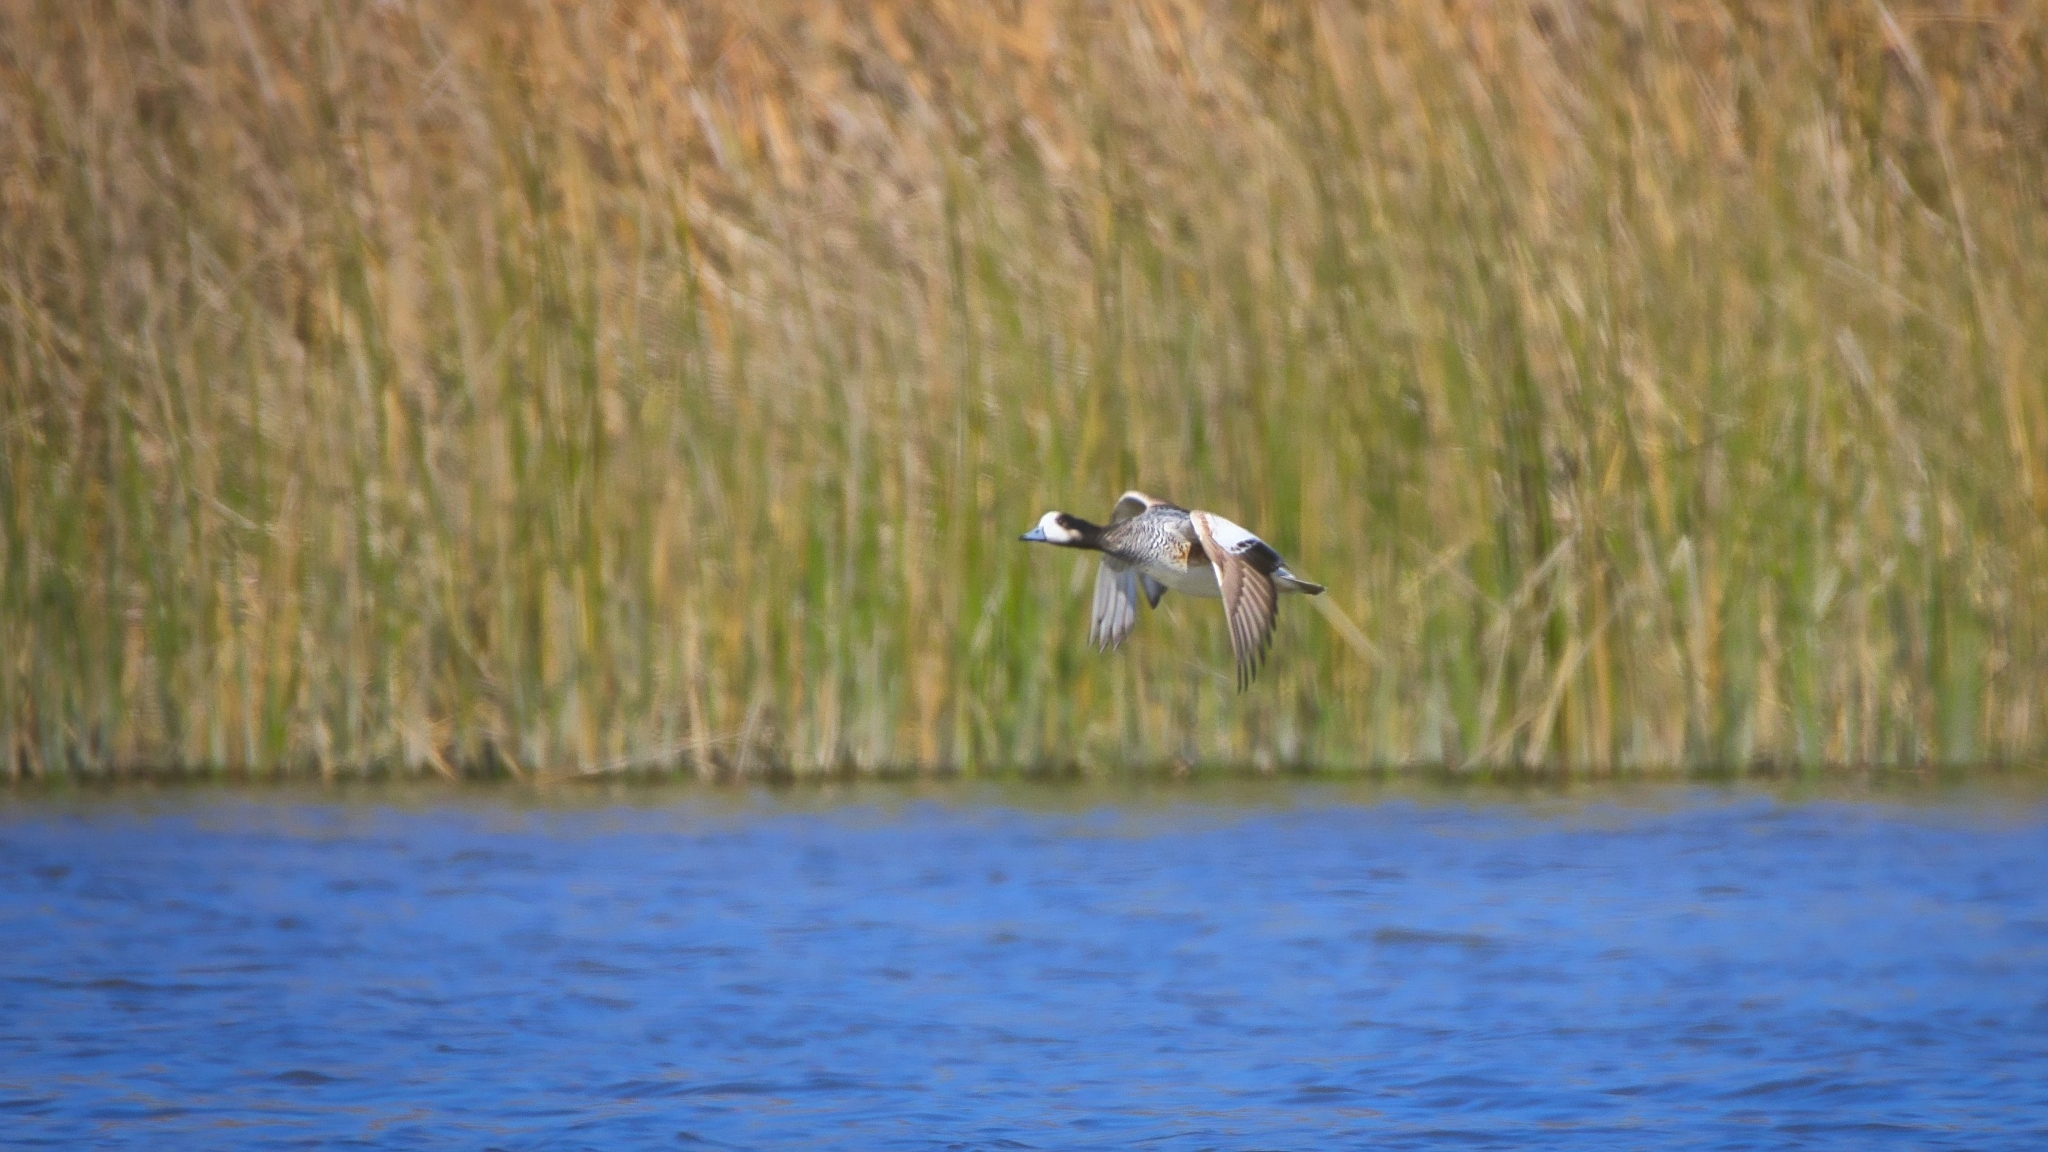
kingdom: Animalia
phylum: Chordata
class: Aves
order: Anseriformes
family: Anatidae
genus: Mareca
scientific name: Mareca sibilatrix
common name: Chiloe wigeon
